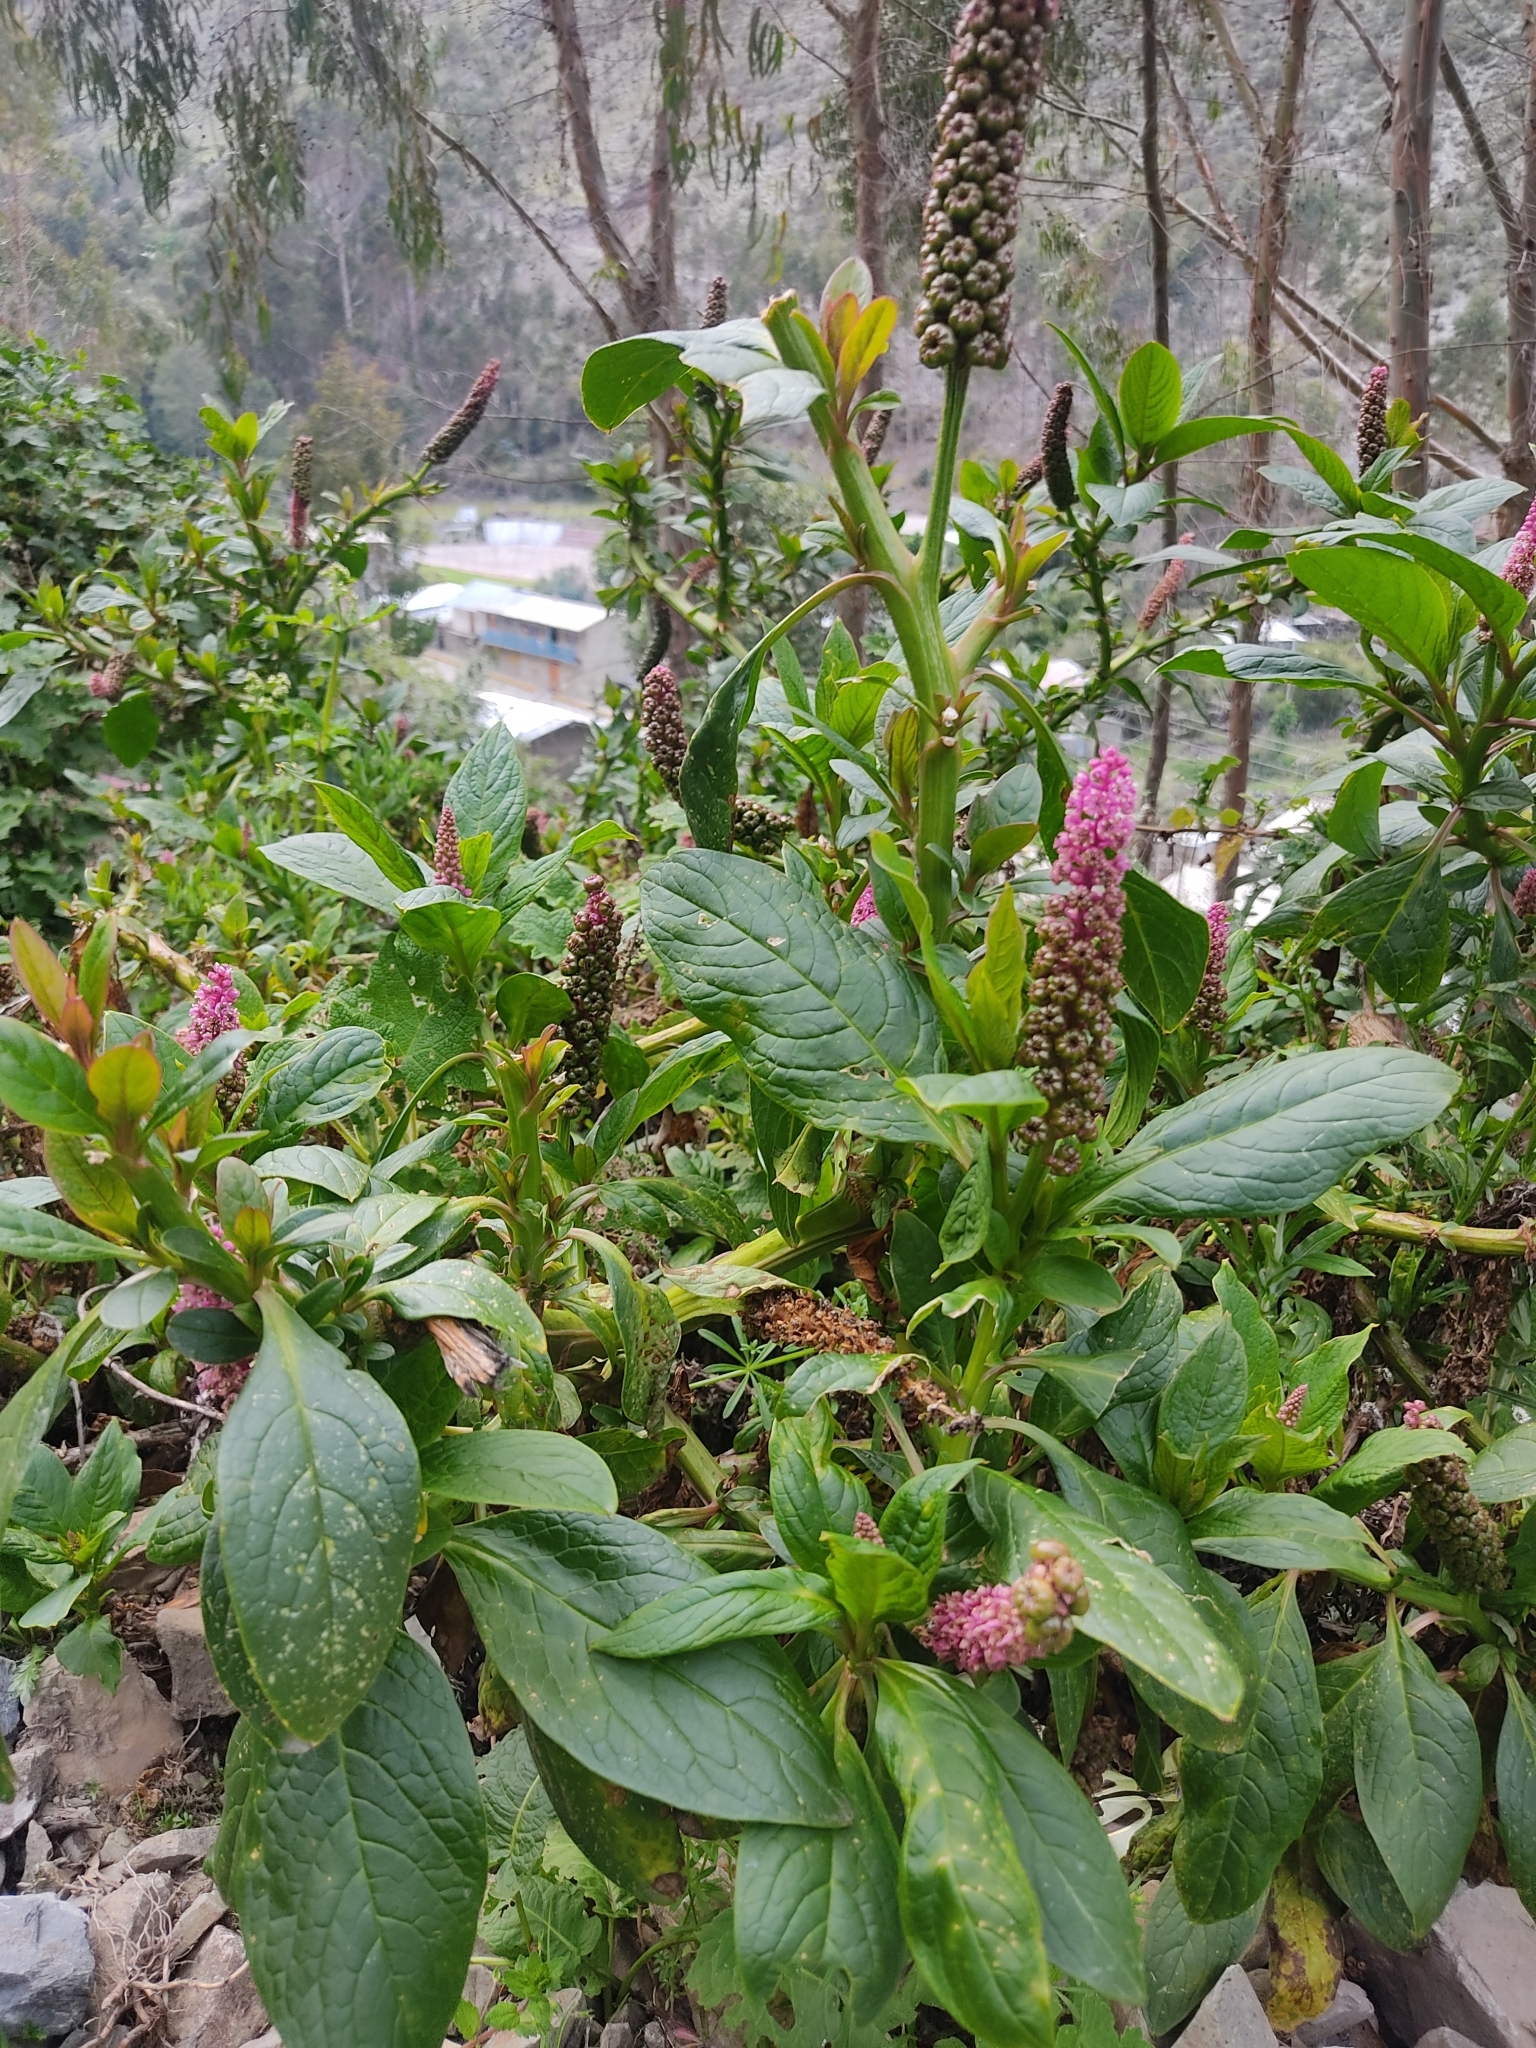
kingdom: Plantae
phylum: Tracheophyta
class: Magnoliopsida
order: Caryophyllales
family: Phytolaccaceae
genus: Phytolacca
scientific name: Phytolacca bogotensis
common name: Southern pokeweed
